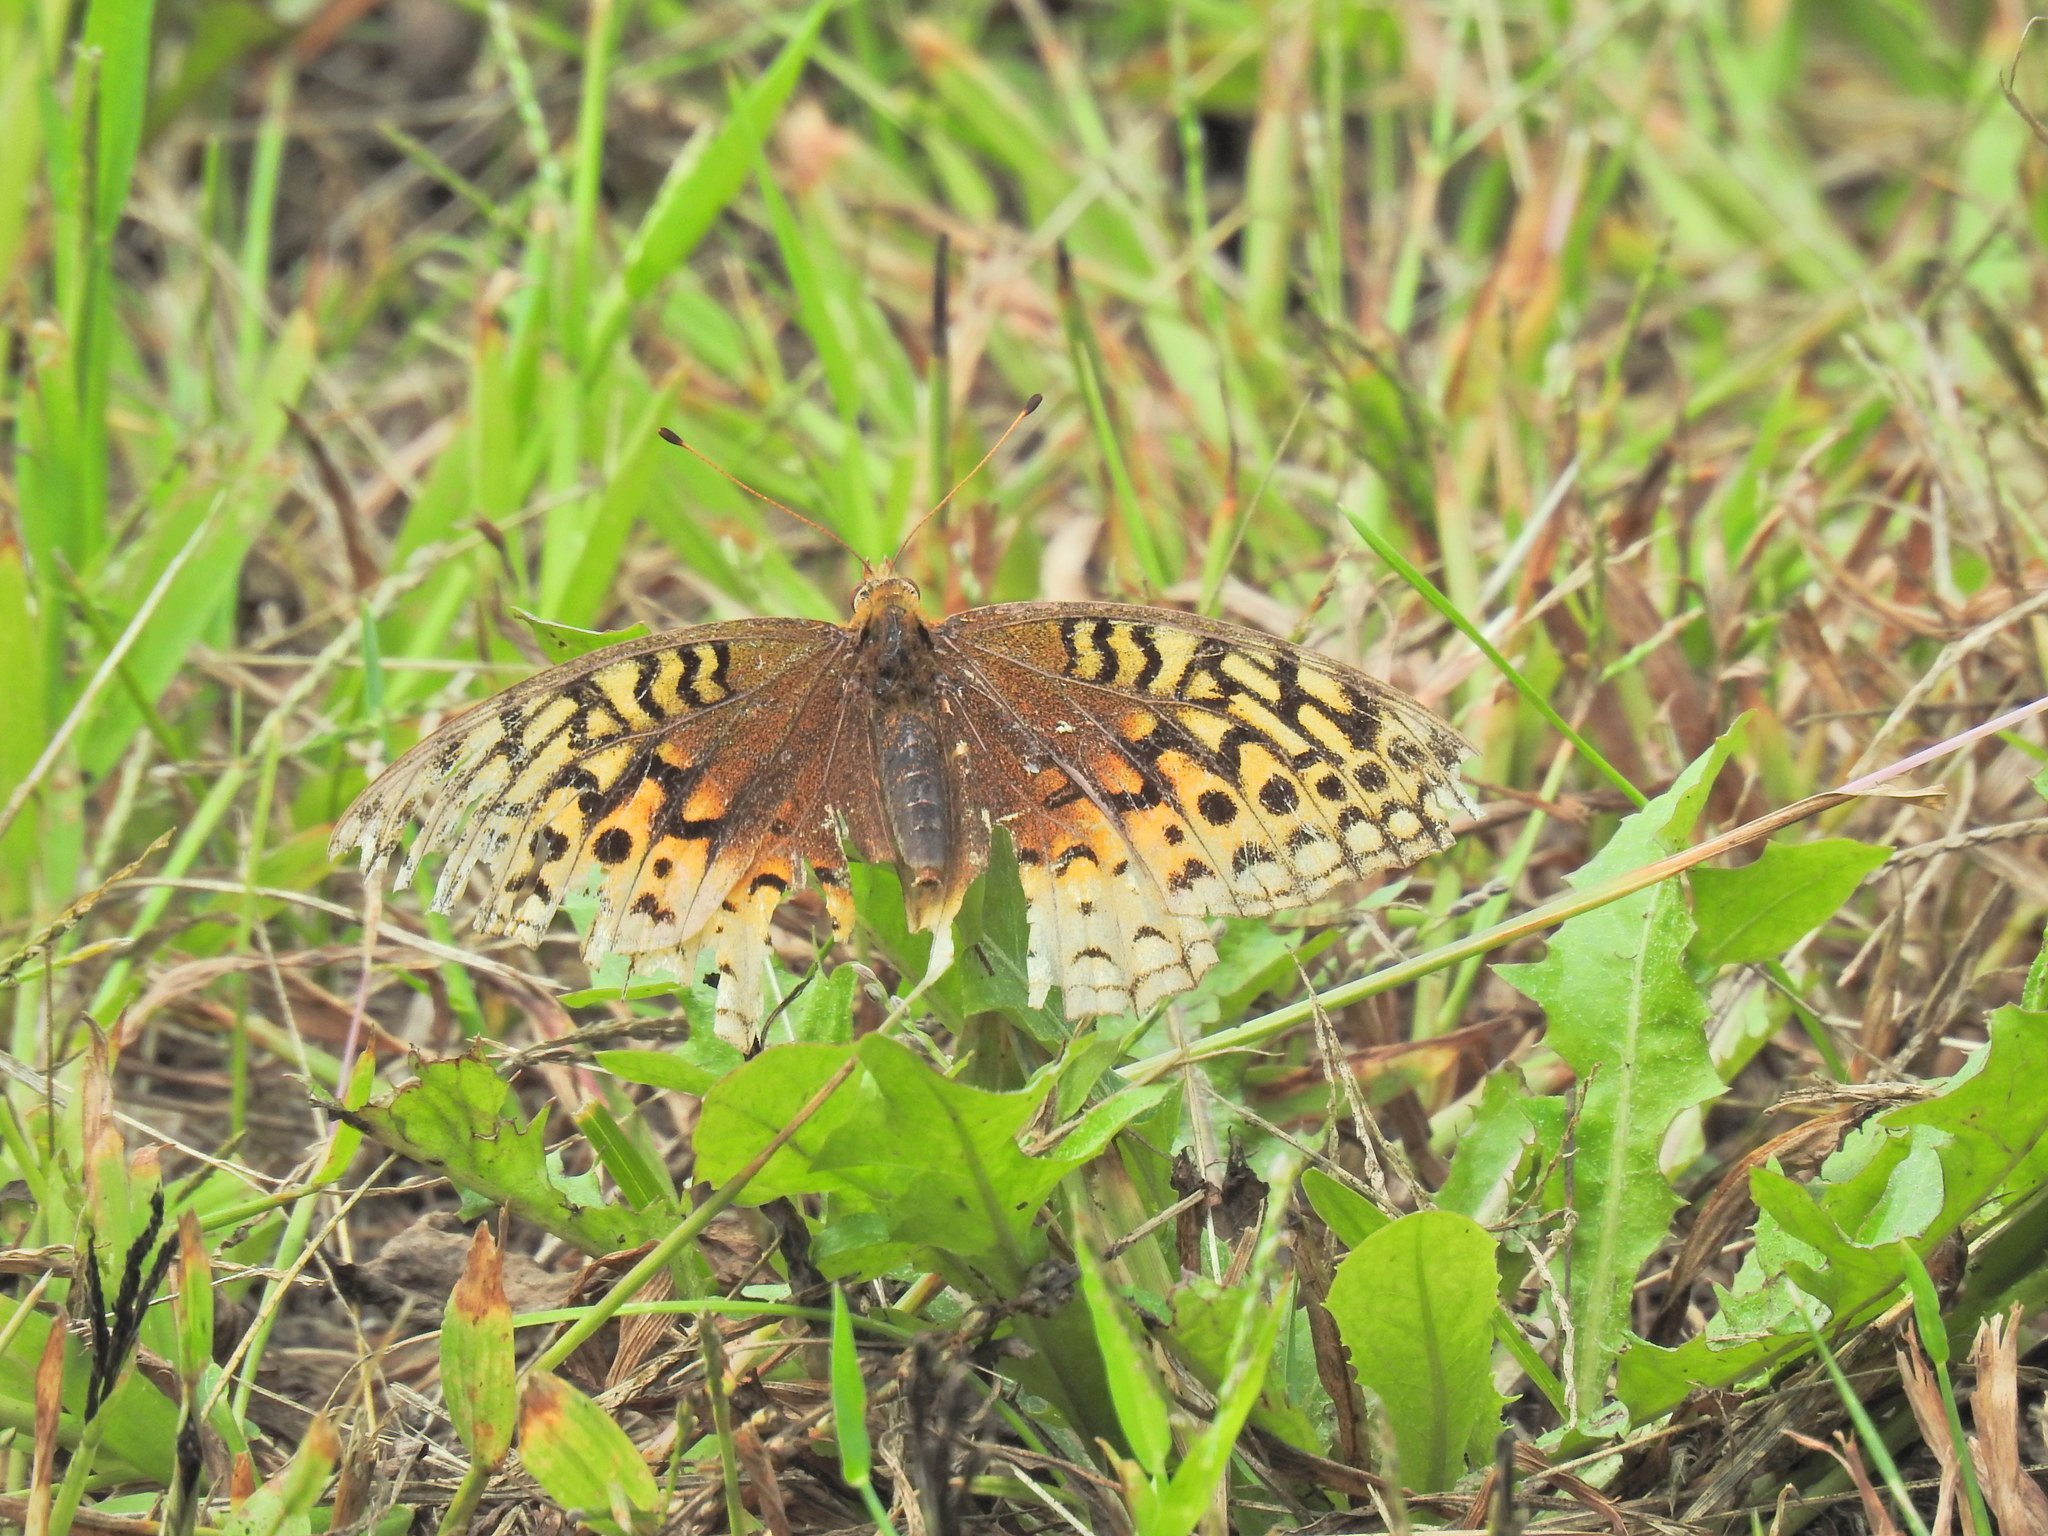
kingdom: Animalia
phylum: Arthropoda
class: Insecta
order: Lepidoptera
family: Nymphalidae
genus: Speyeria
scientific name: Speyeria cybele
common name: Great spangled fritillary
